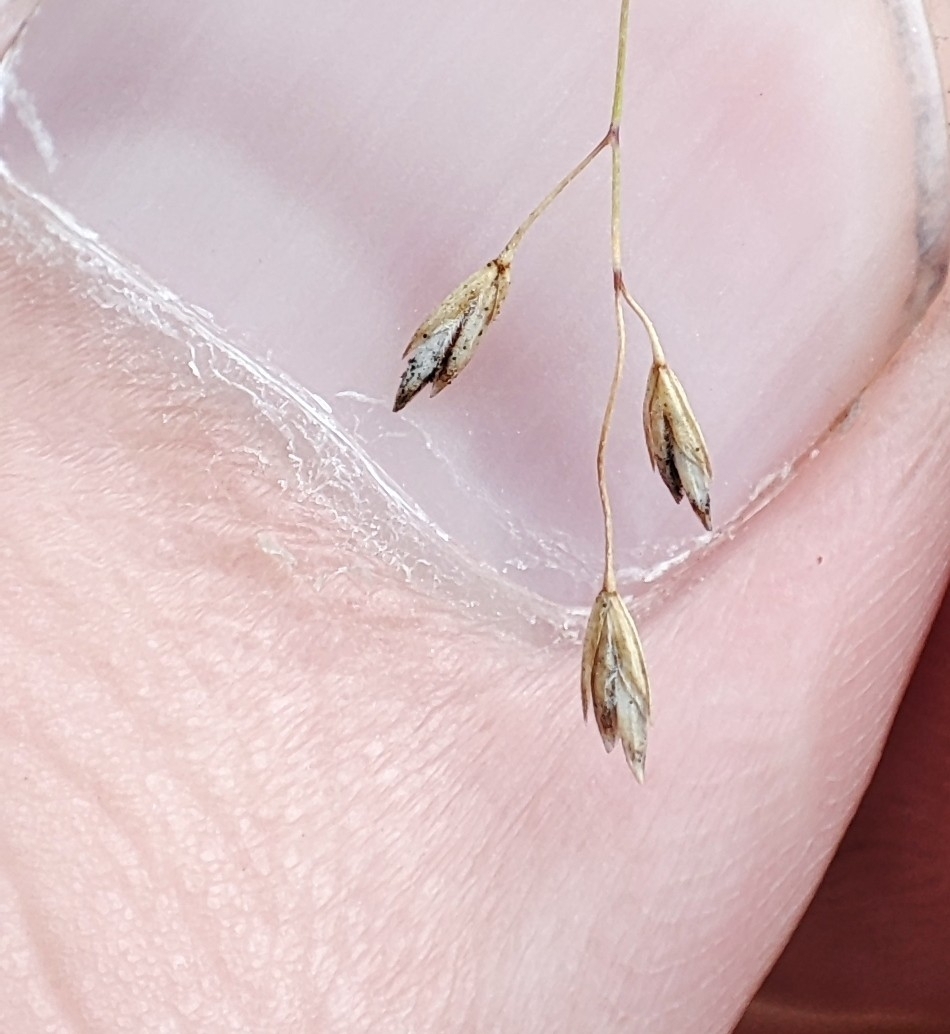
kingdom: Plantae
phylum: Tracheophyta
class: Liliopsida
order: Poales
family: Poaceae
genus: Poa
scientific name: Poa palustris
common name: Swamp meadow-grass
